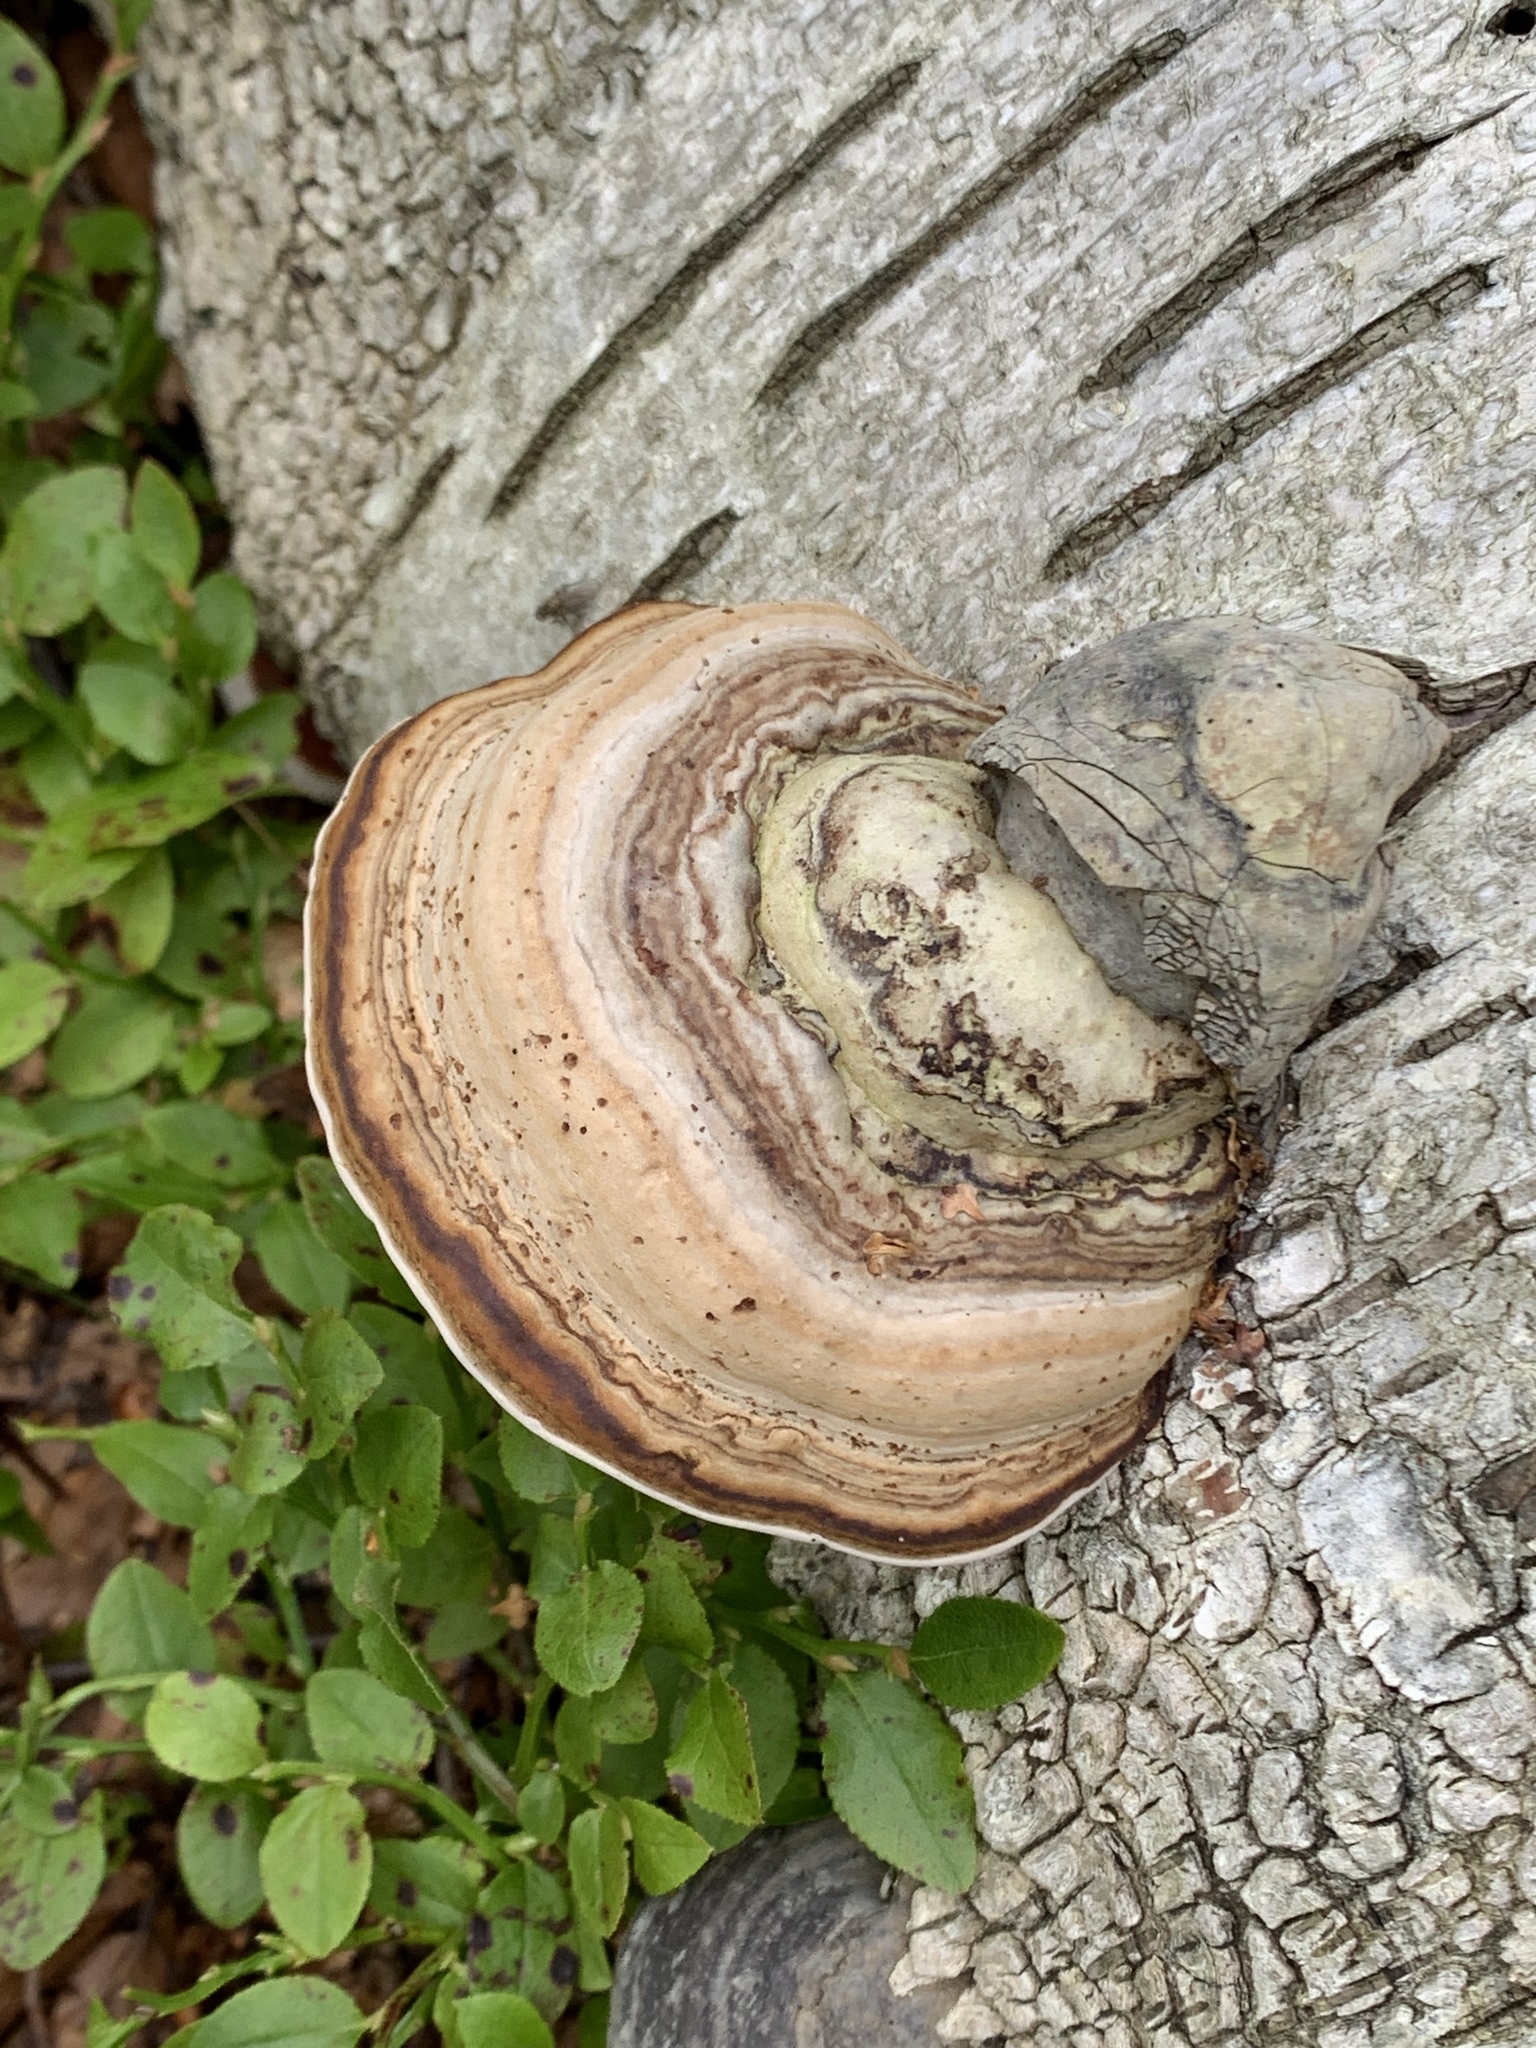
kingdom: Fungi
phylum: Basidiomycota
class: Agaricomycetes
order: Polyporales
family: Polyporaceae
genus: Fomes
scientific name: Fomes fomentarius
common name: Hoof fungus
